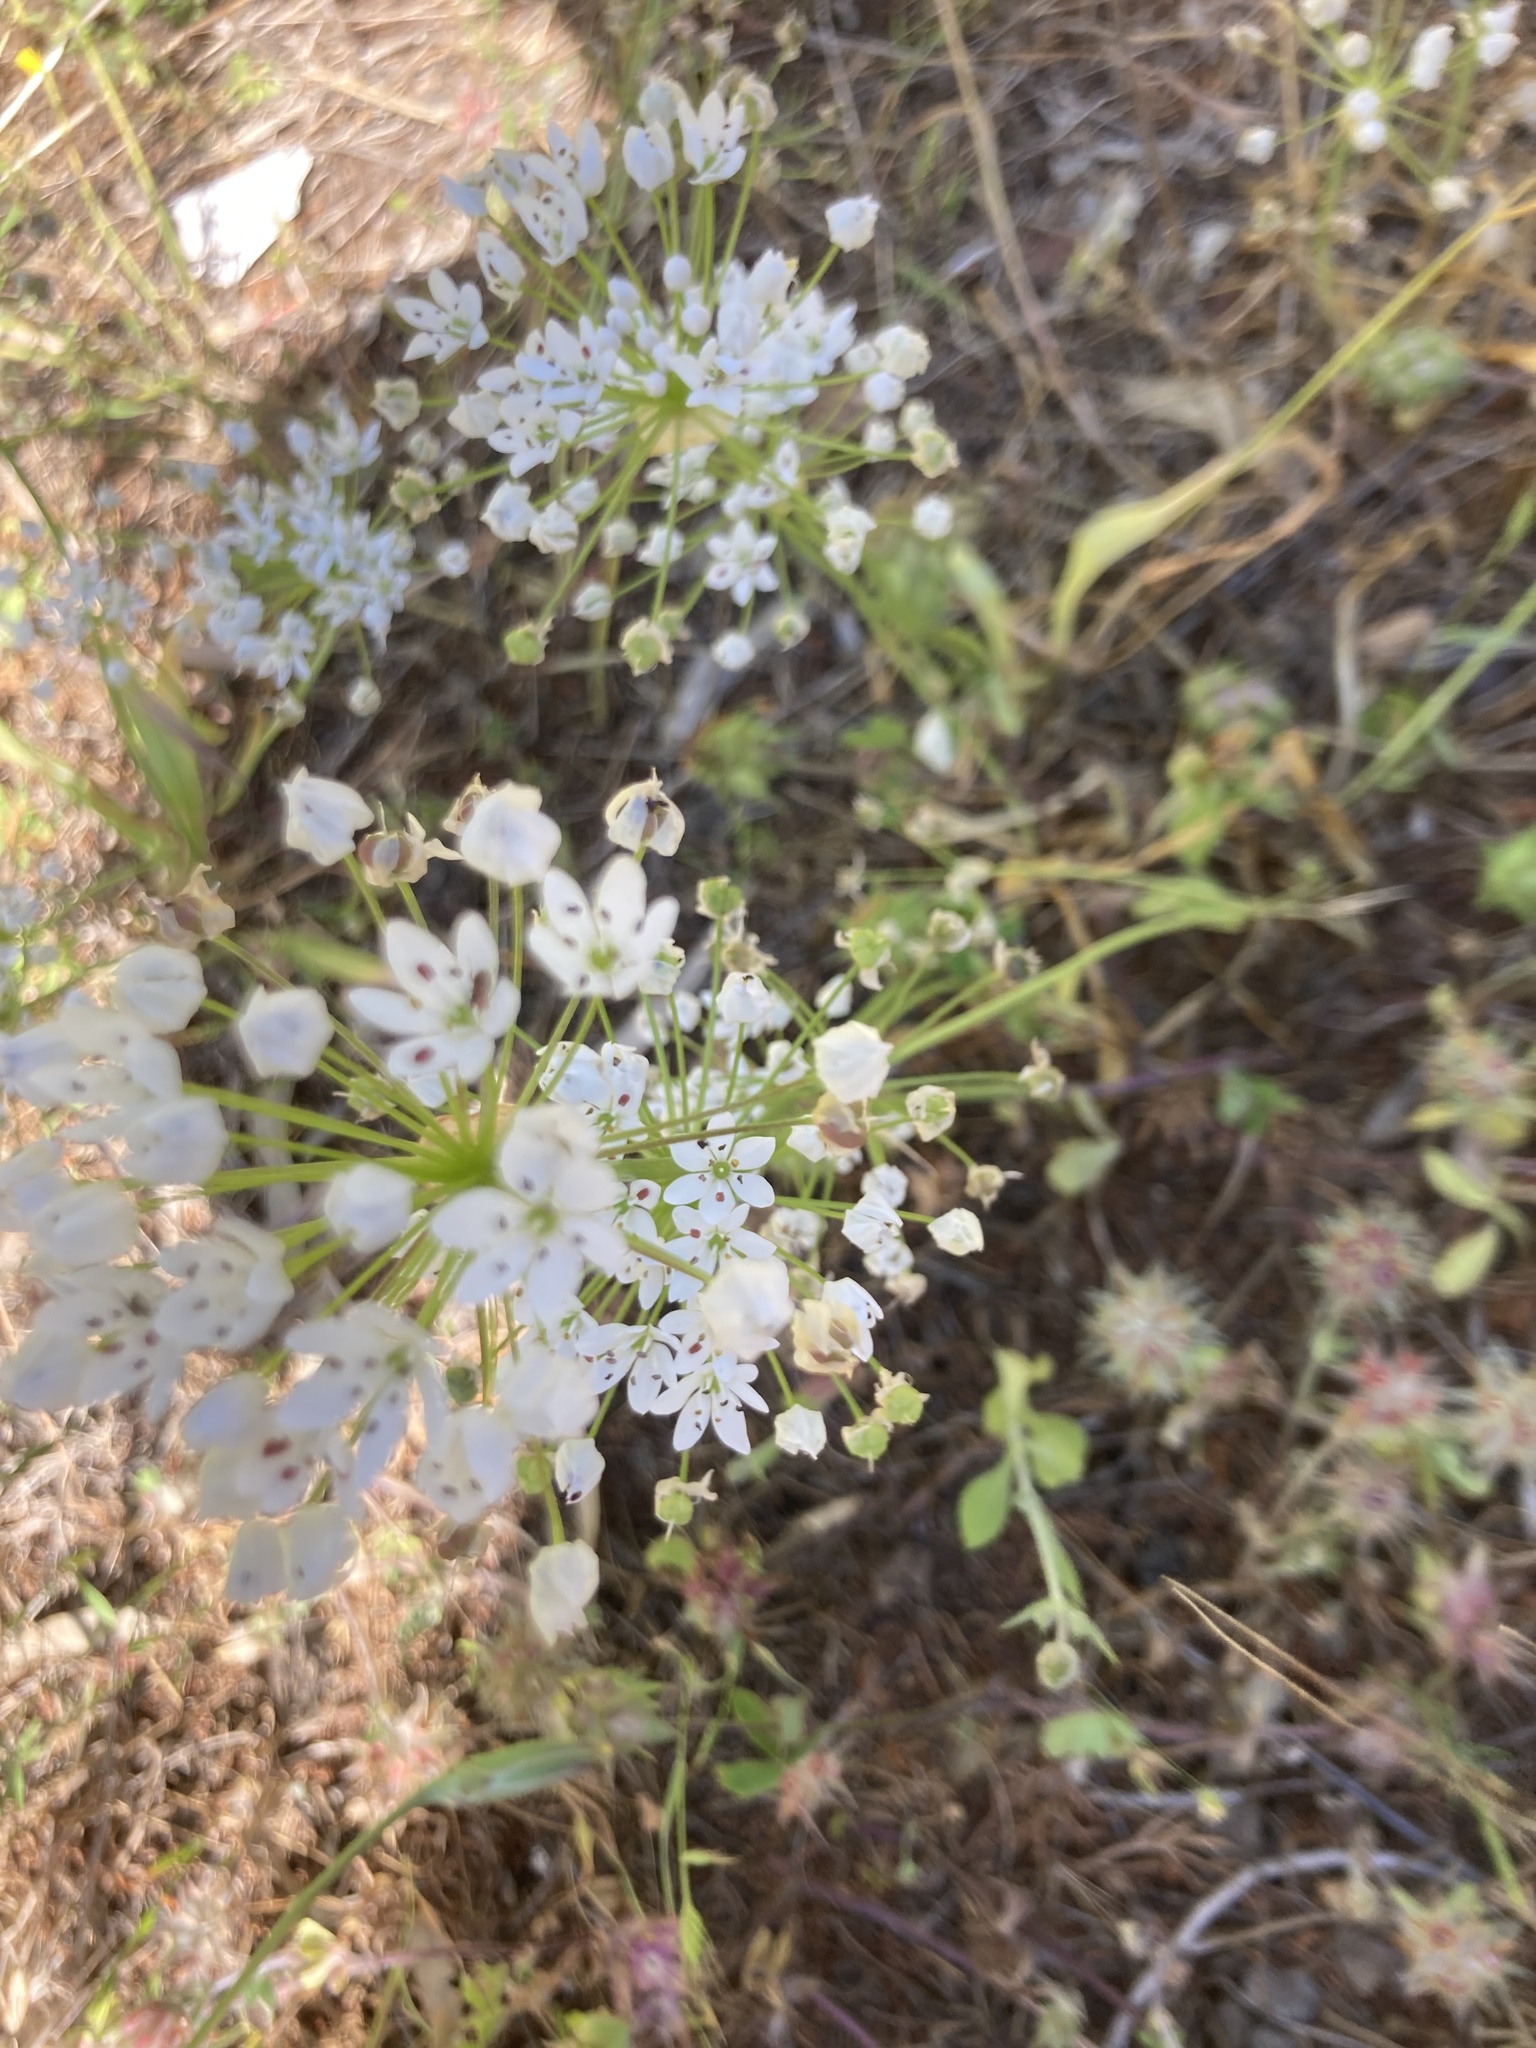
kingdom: Plantae
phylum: Tracheophyta
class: Liliopsida
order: Asparagales
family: Amaryllidaceae
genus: Allium
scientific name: Allium subhirsutum
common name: Hairy garlic
